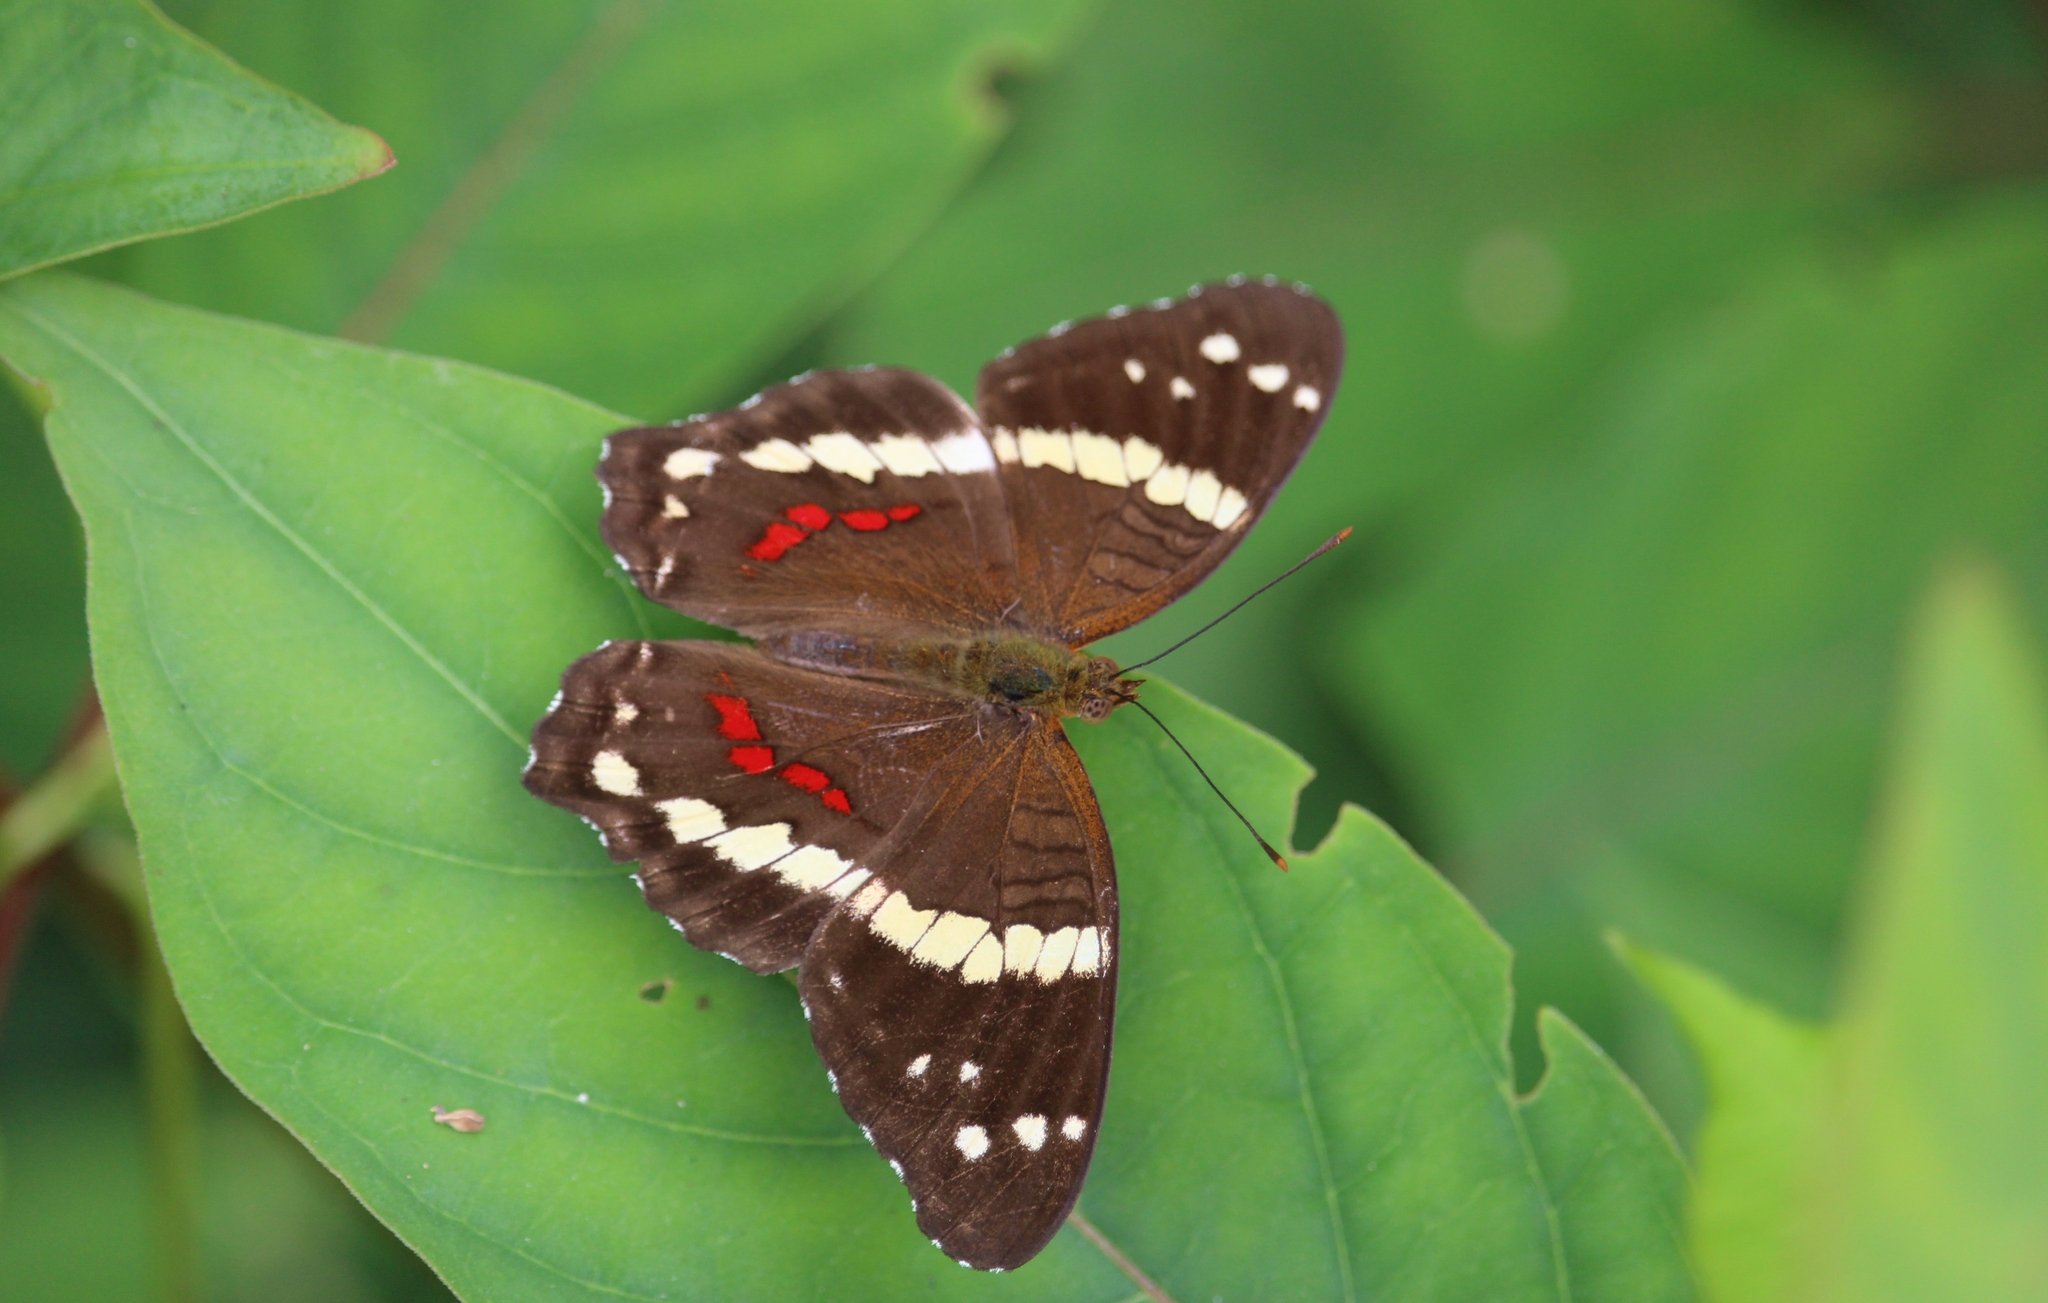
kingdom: Animalia
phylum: Arthropoda
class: Insecta
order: Lepidoptera
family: Nymphalidae
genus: Anartia
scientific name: Anartia fatima
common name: Banded peacock
